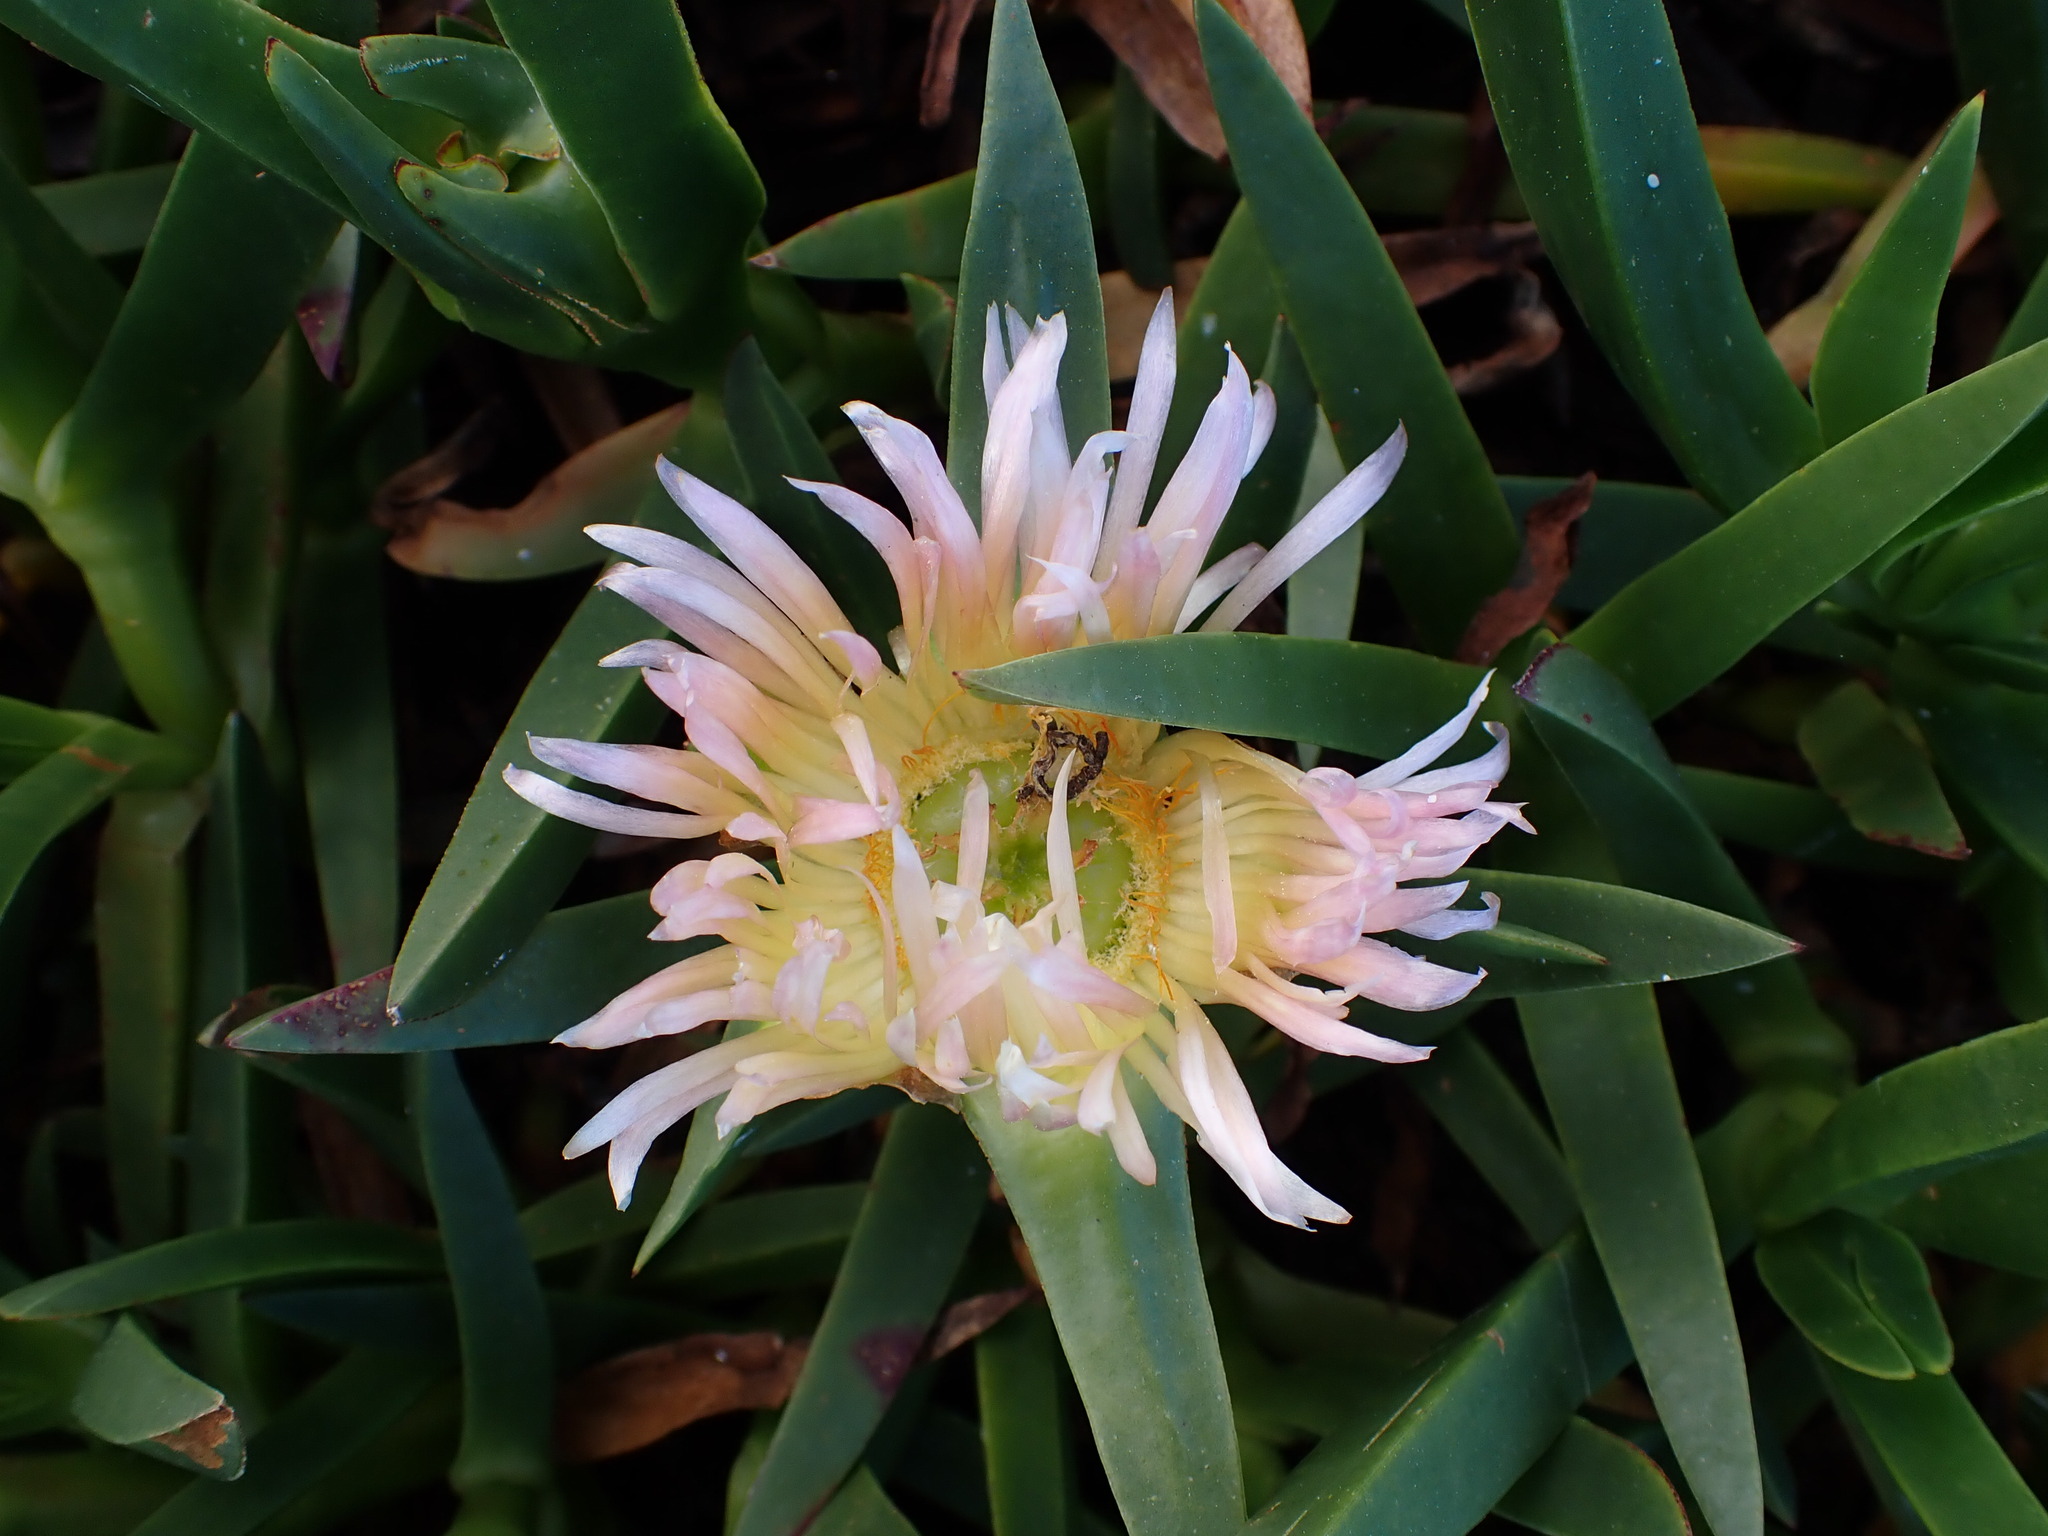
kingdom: Plantae
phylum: Tracheophyta
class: Magnoliopsida
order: Caryophyllales
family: Aizoaceae
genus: Carpobrotus
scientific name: Carpobrotus edulis
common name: Hottentot-fig
